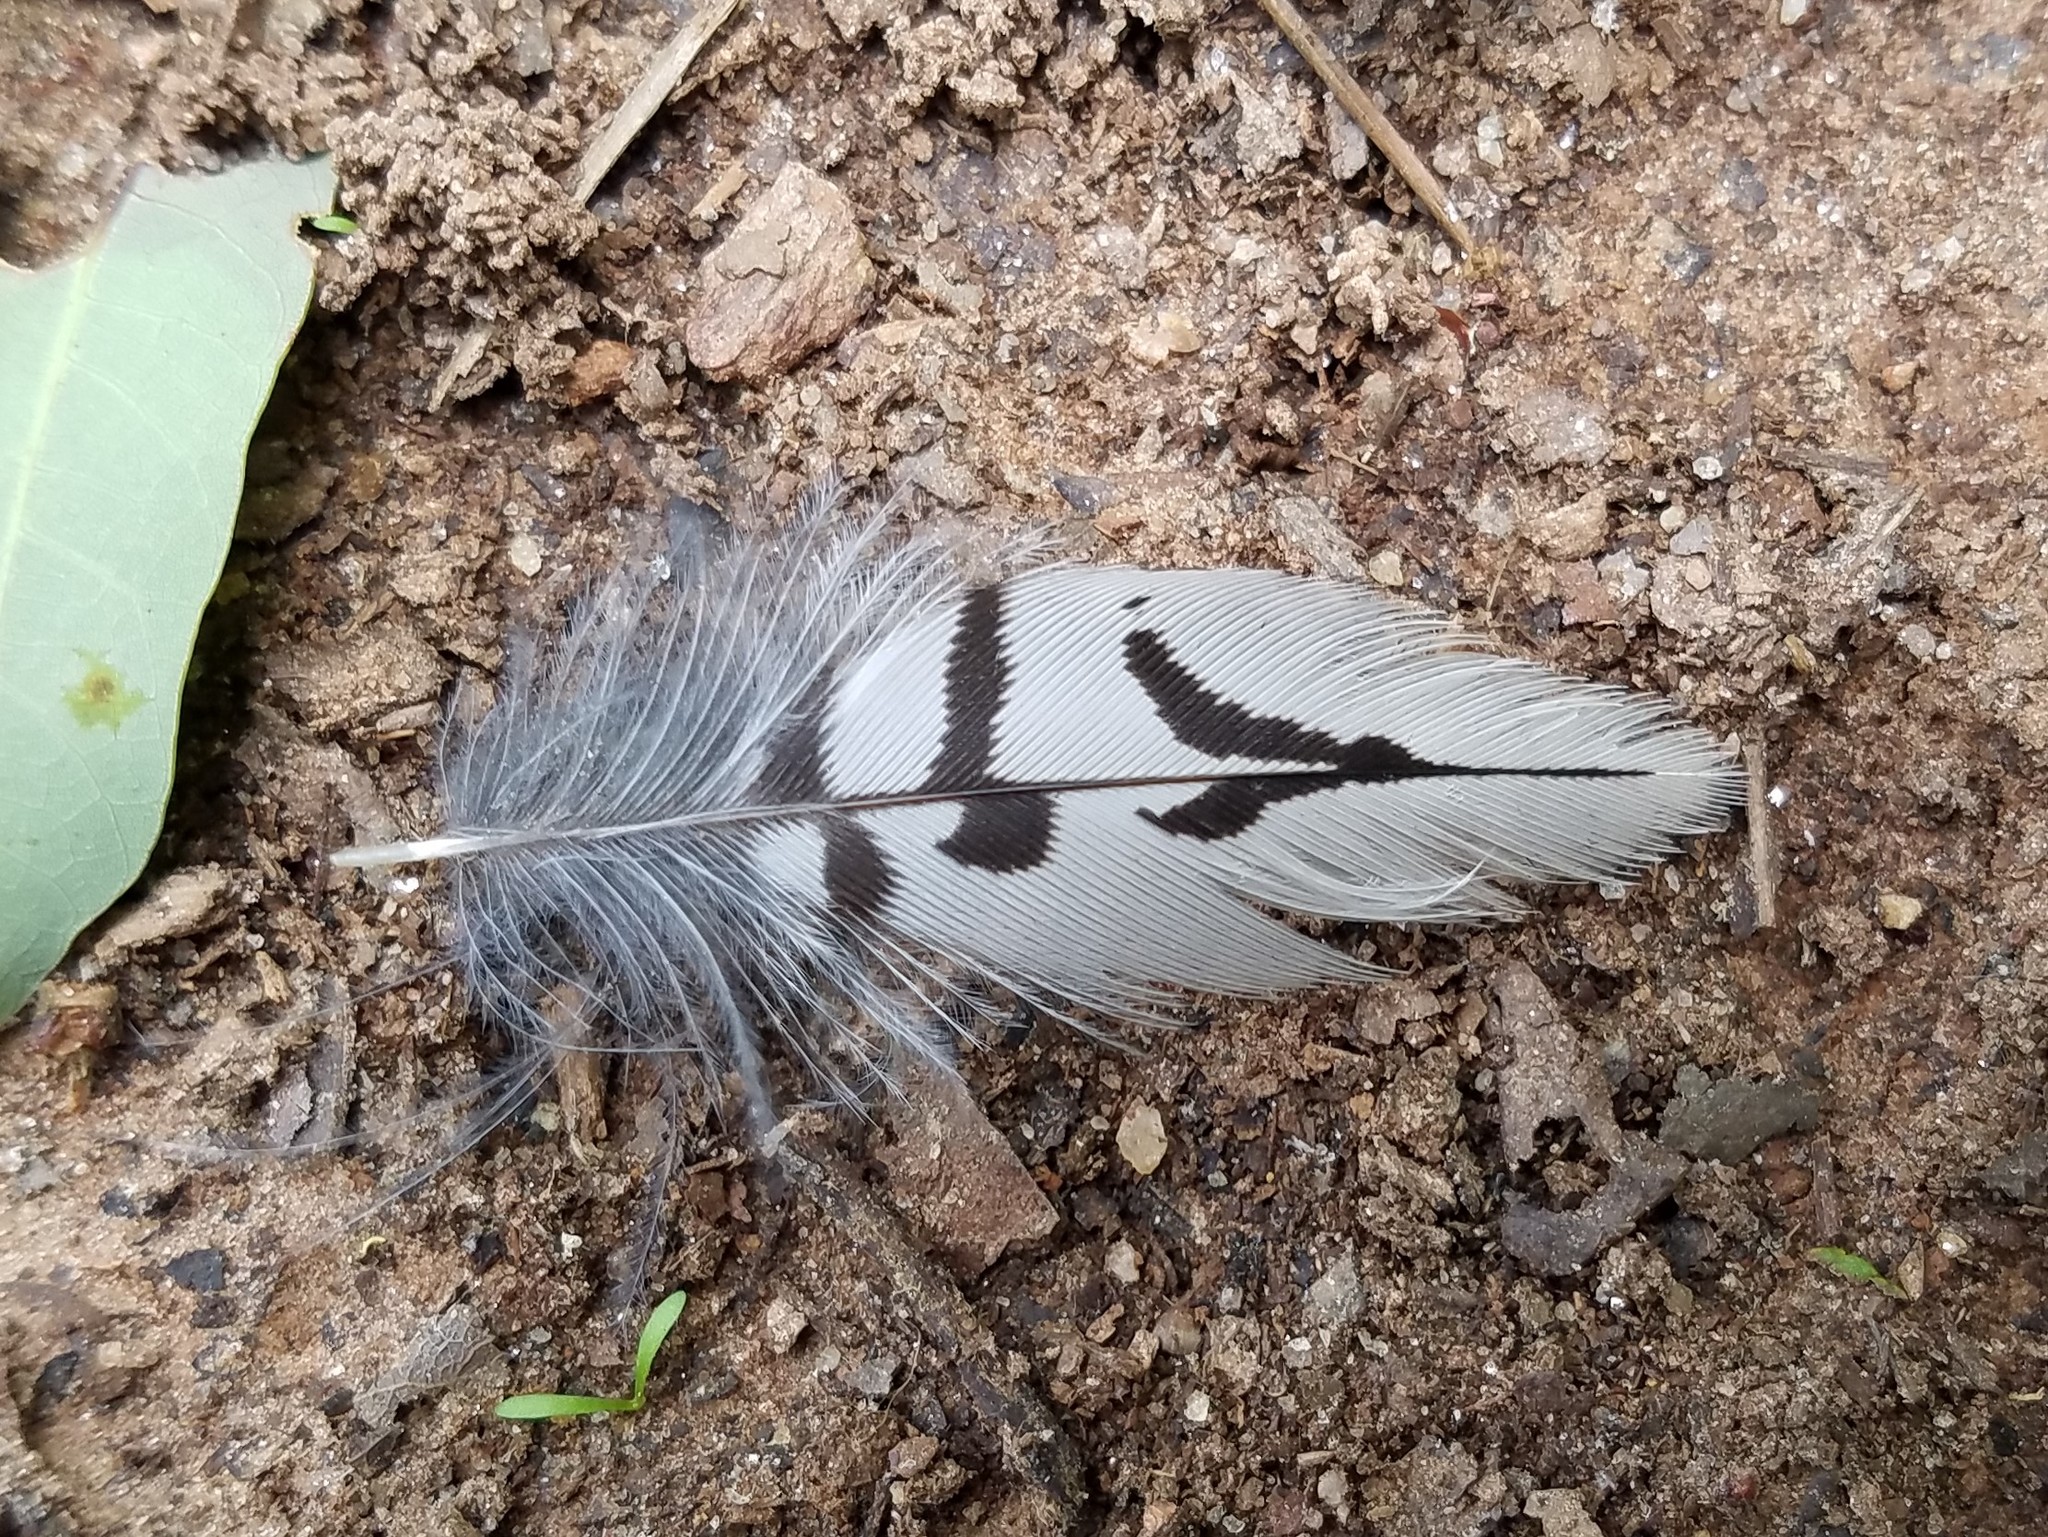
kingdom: Animalia
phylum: Chordata
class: Aves
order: Piciformes
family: Picidae
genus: Melanerpes
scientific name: Melanerpes carolinus
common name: Red-bellied woodpecker
